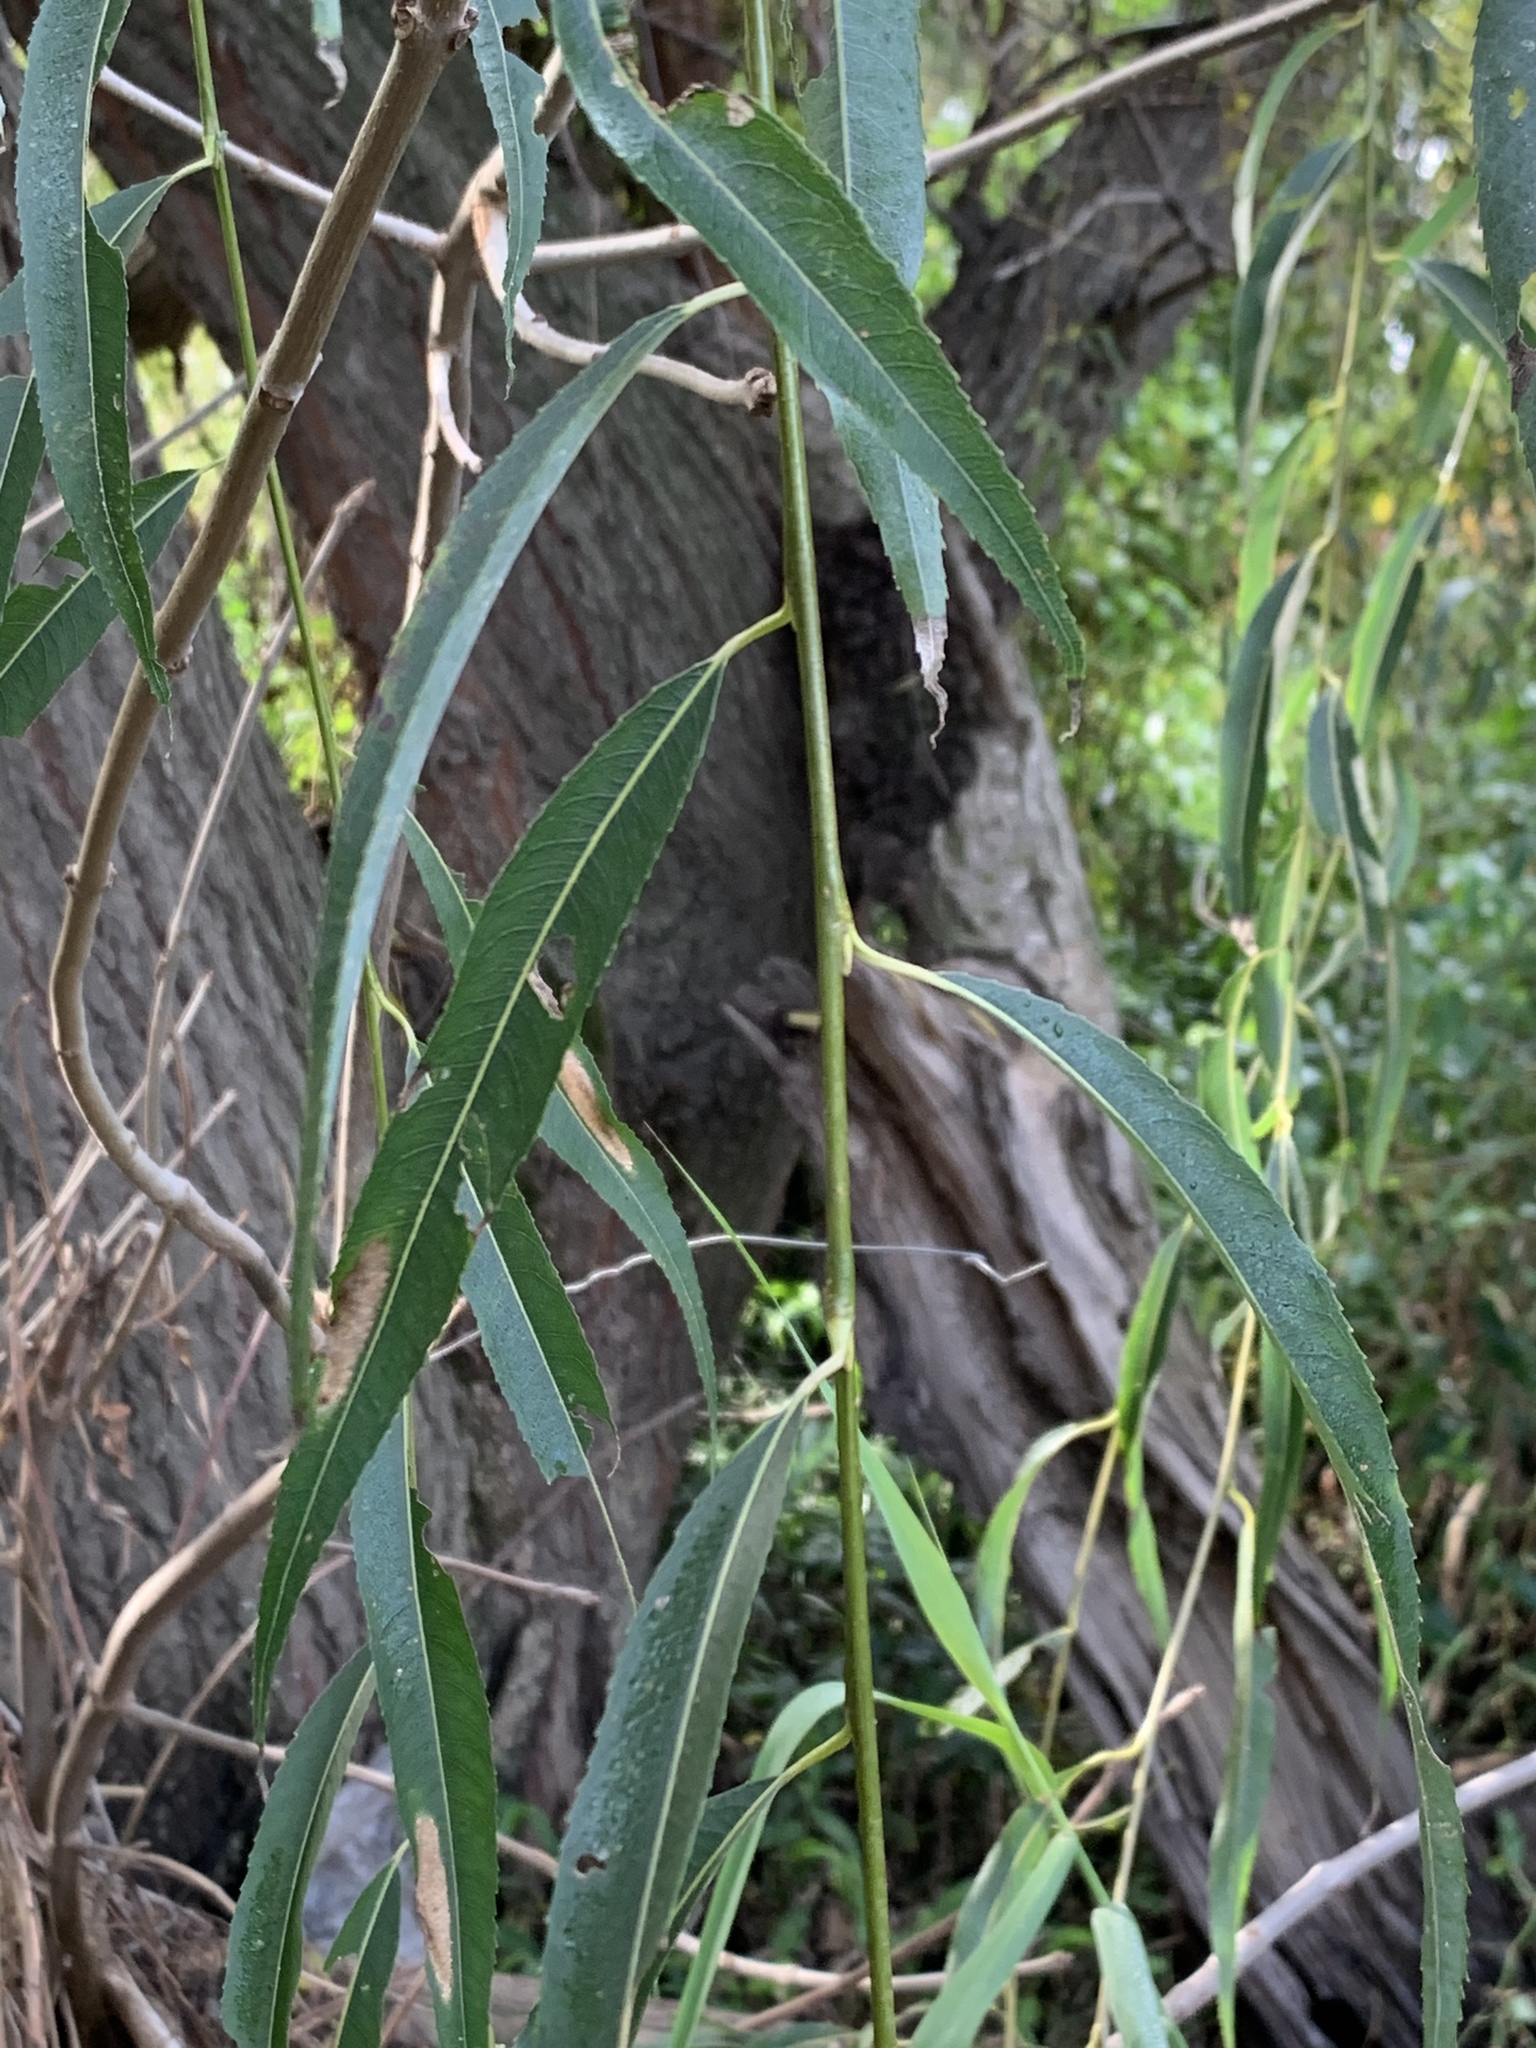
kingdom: Plantae
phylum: Tracheophyta
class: Magnoliopsida
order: Malpighiales
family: Salicaceae
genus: Salix
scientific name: Salix babylonica
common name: Weeping willow
